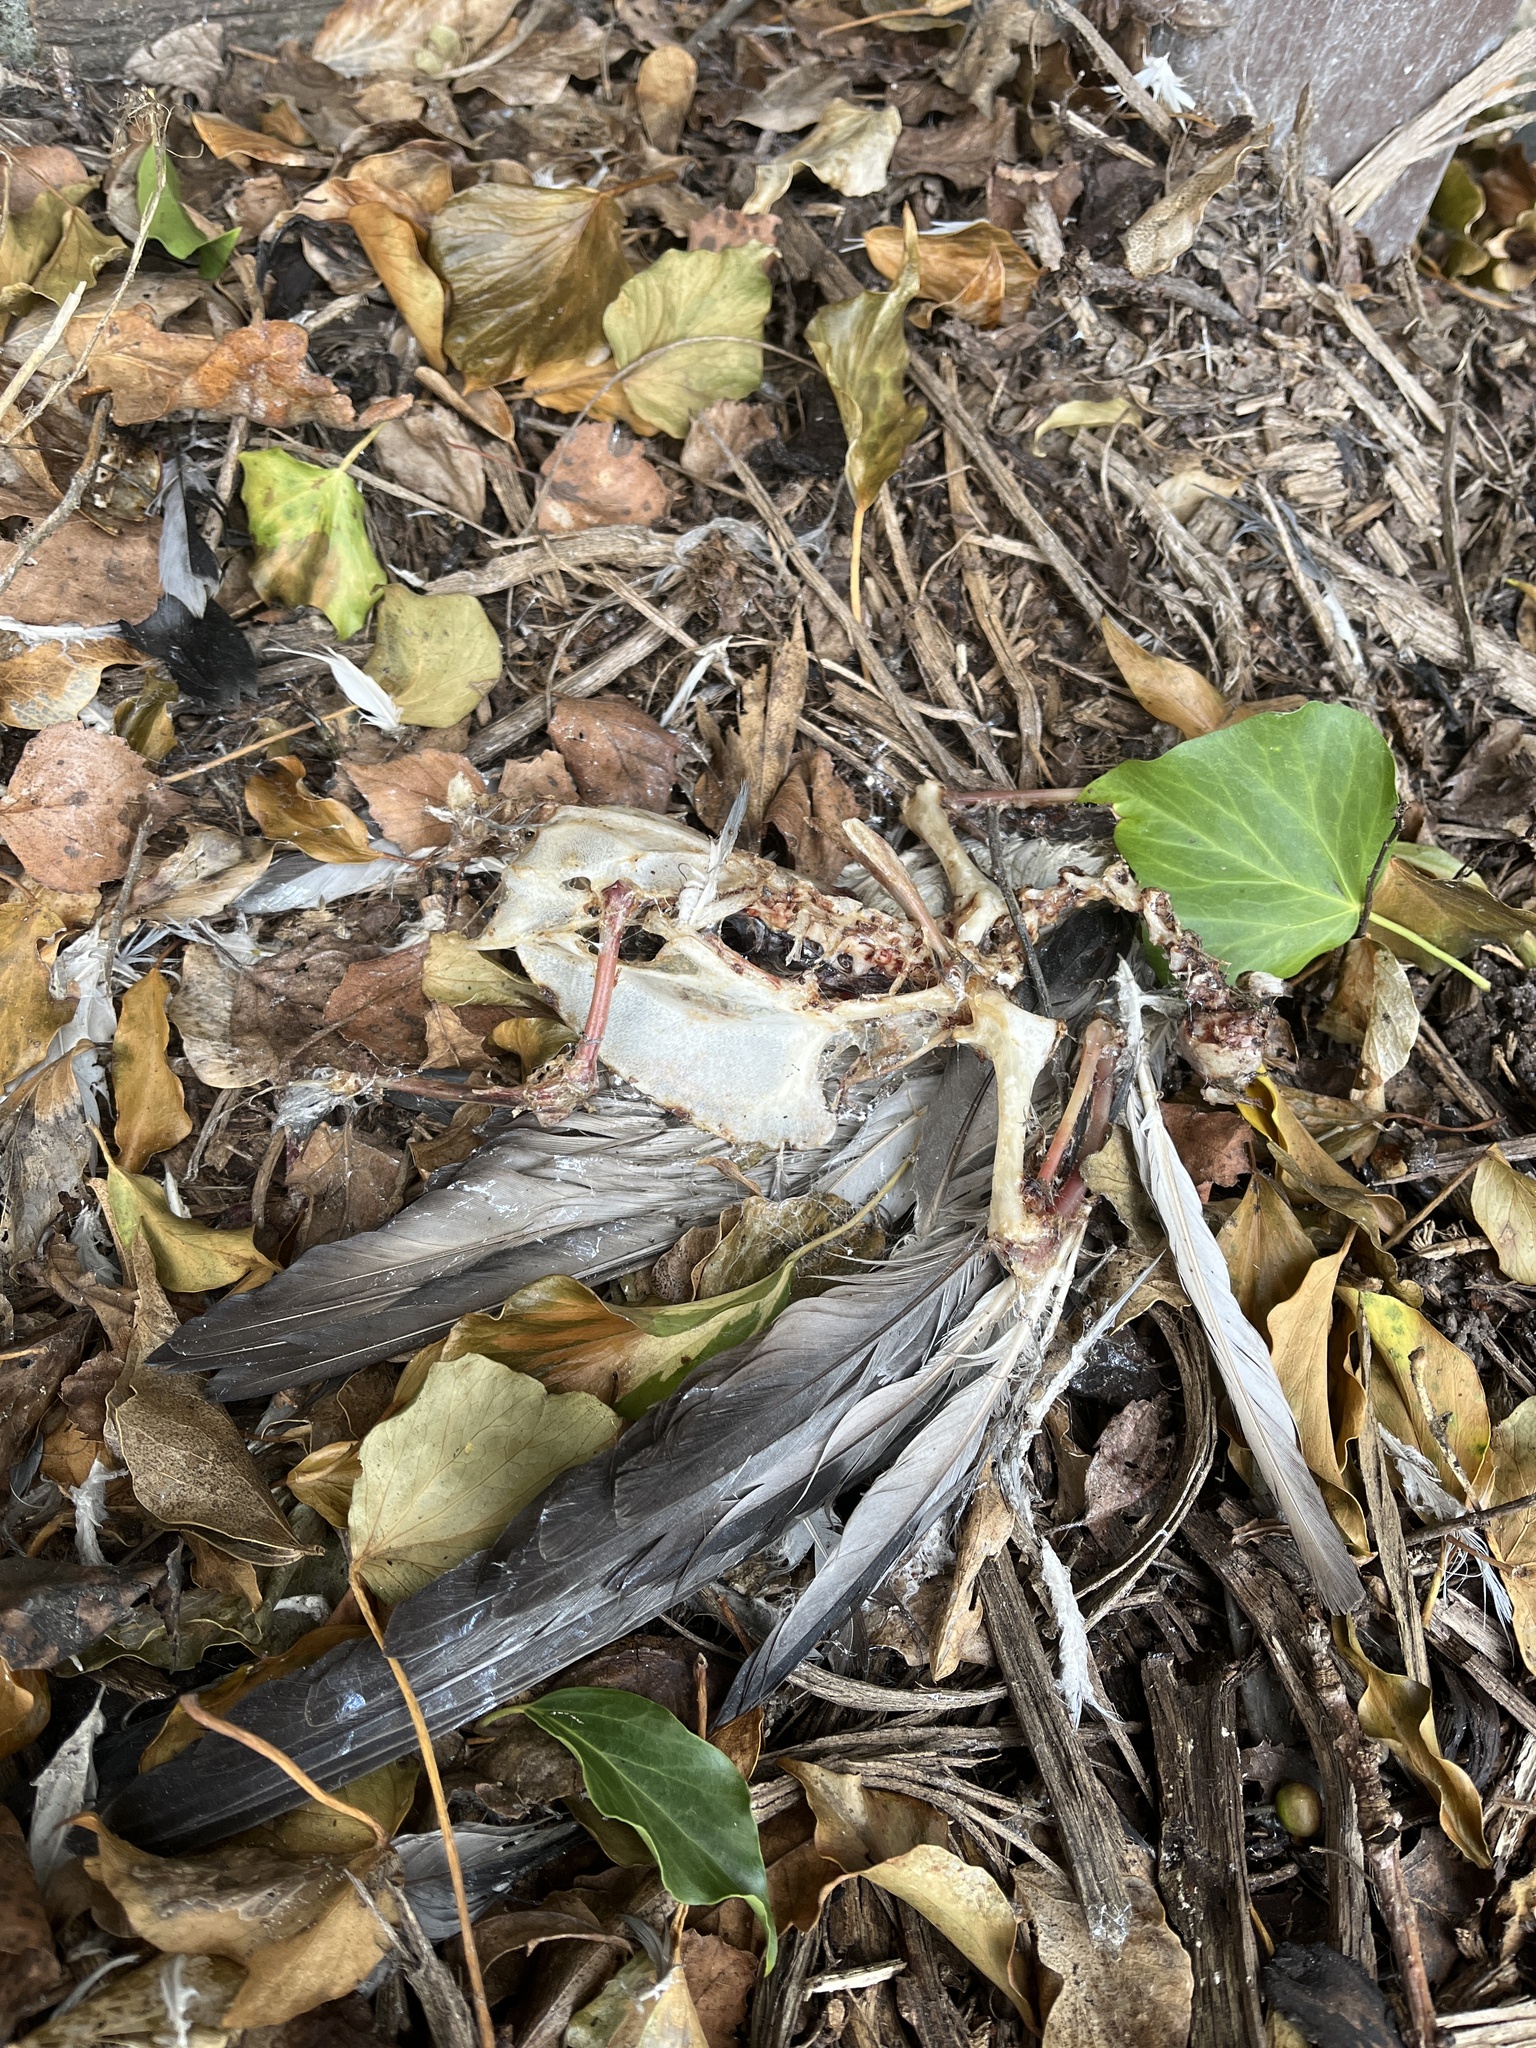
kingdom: Animalia
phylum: Chordata
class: Aves
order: Columbiformes
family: Columbidae
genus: Columba
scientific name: Columba livia
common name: Rock pigeon
